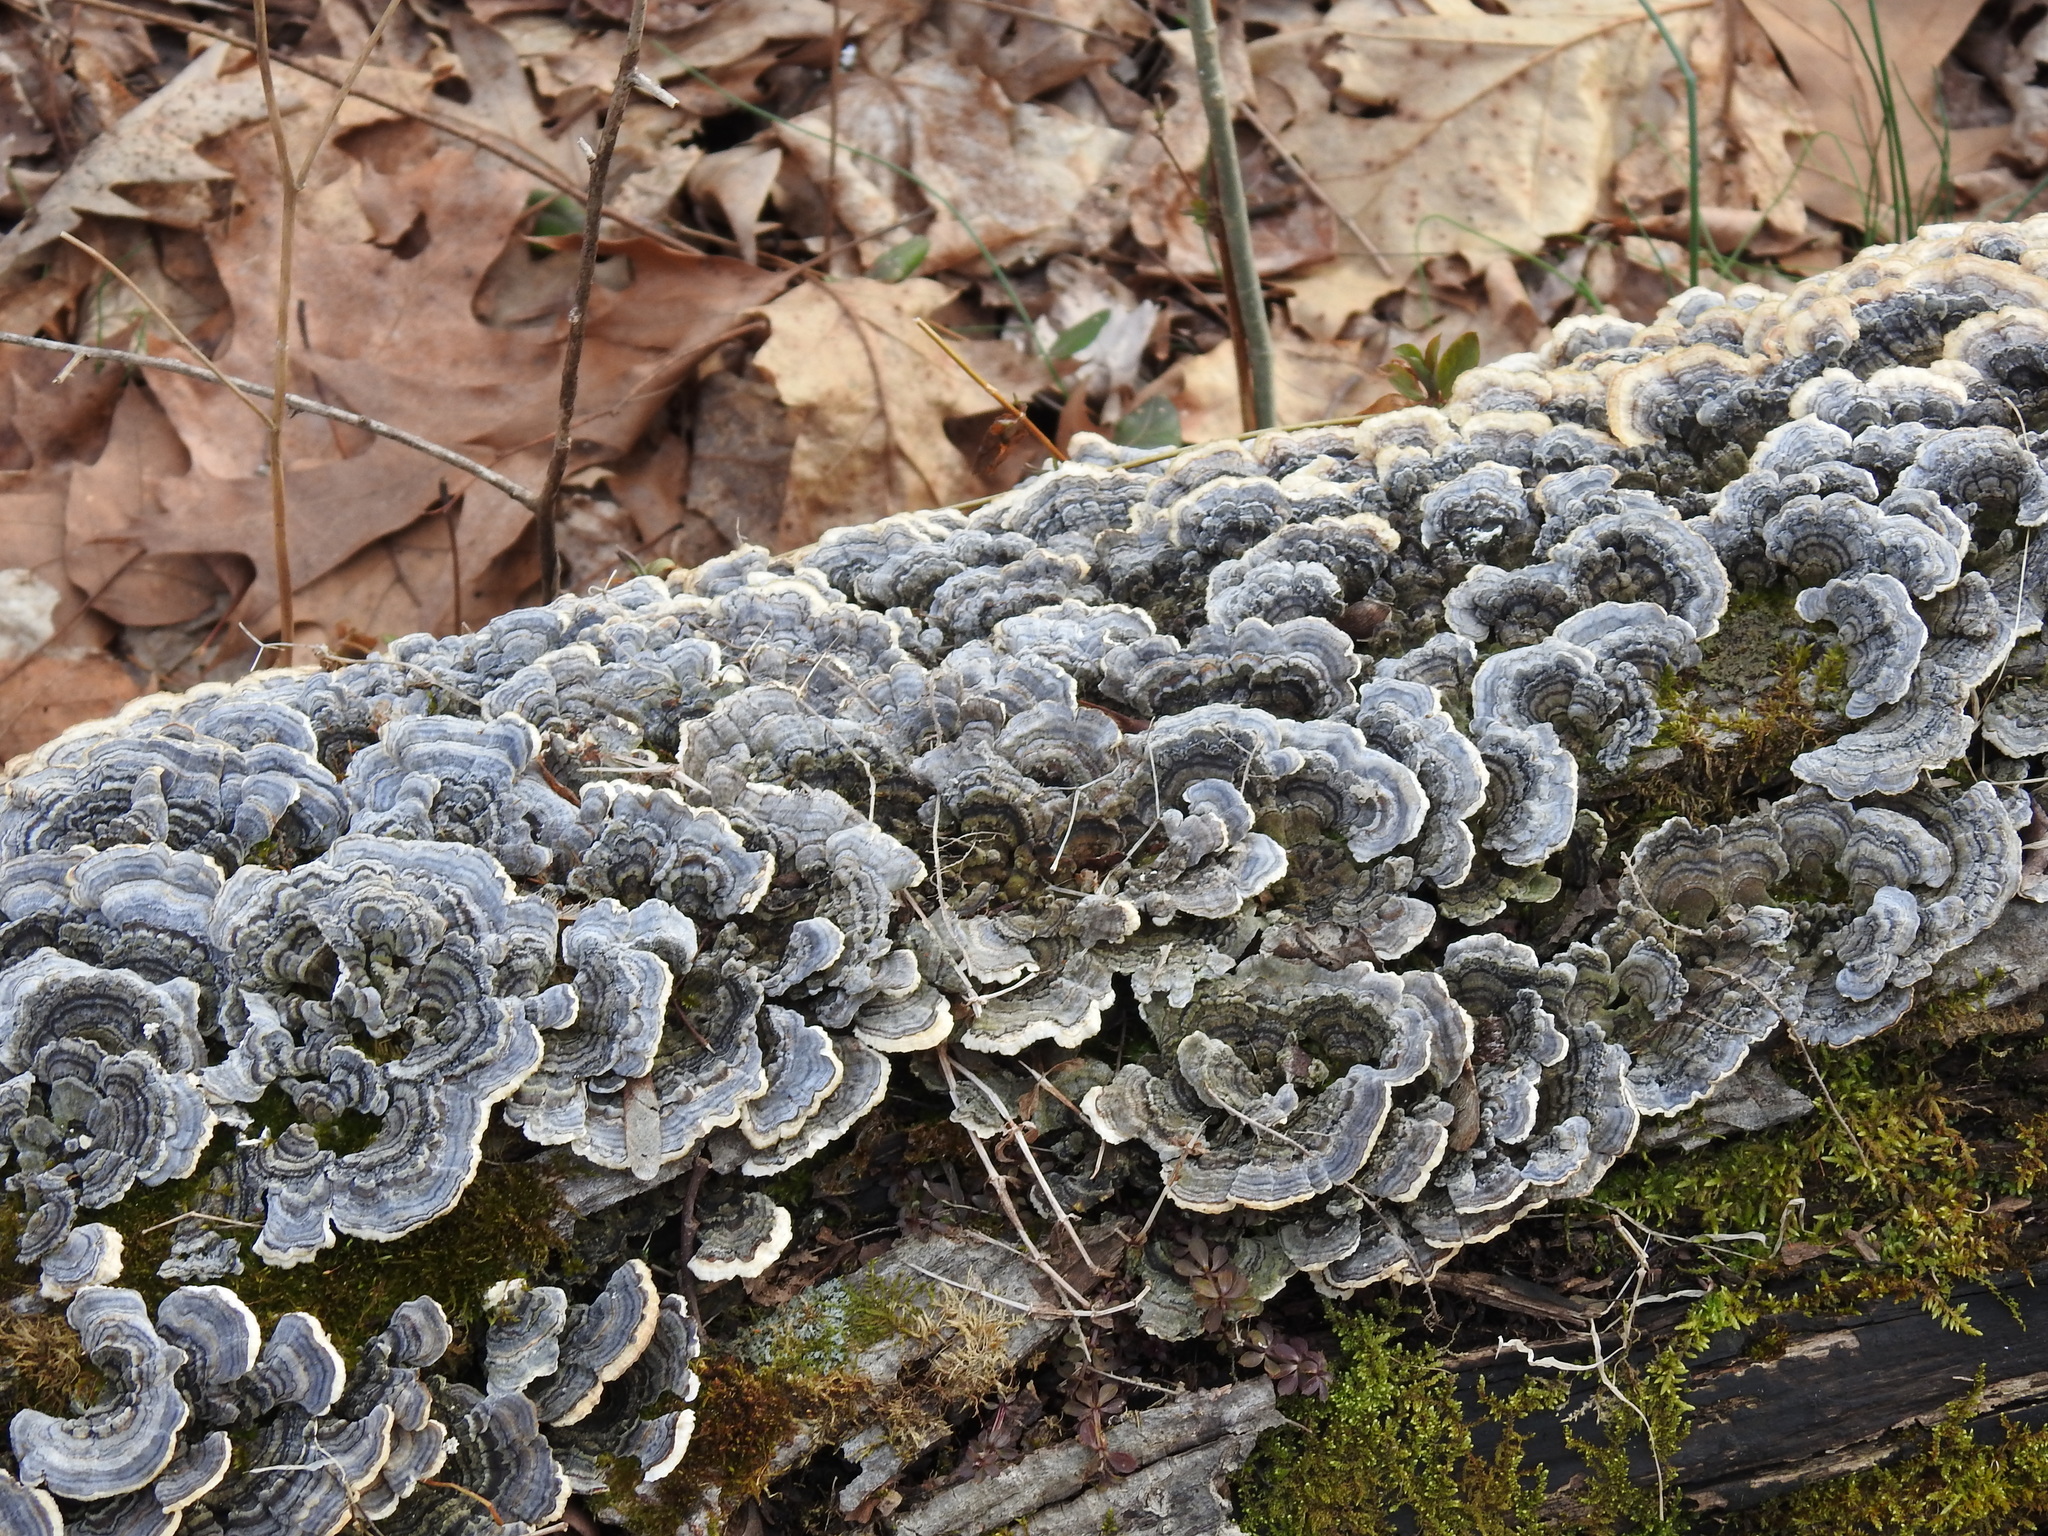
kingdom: Fungi
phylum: Basidiomycota
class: Agaricomycetes
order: Polyporales
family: Polyporaceae
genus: Trametes
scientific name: Trametes versicolor
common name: Turkeytail
